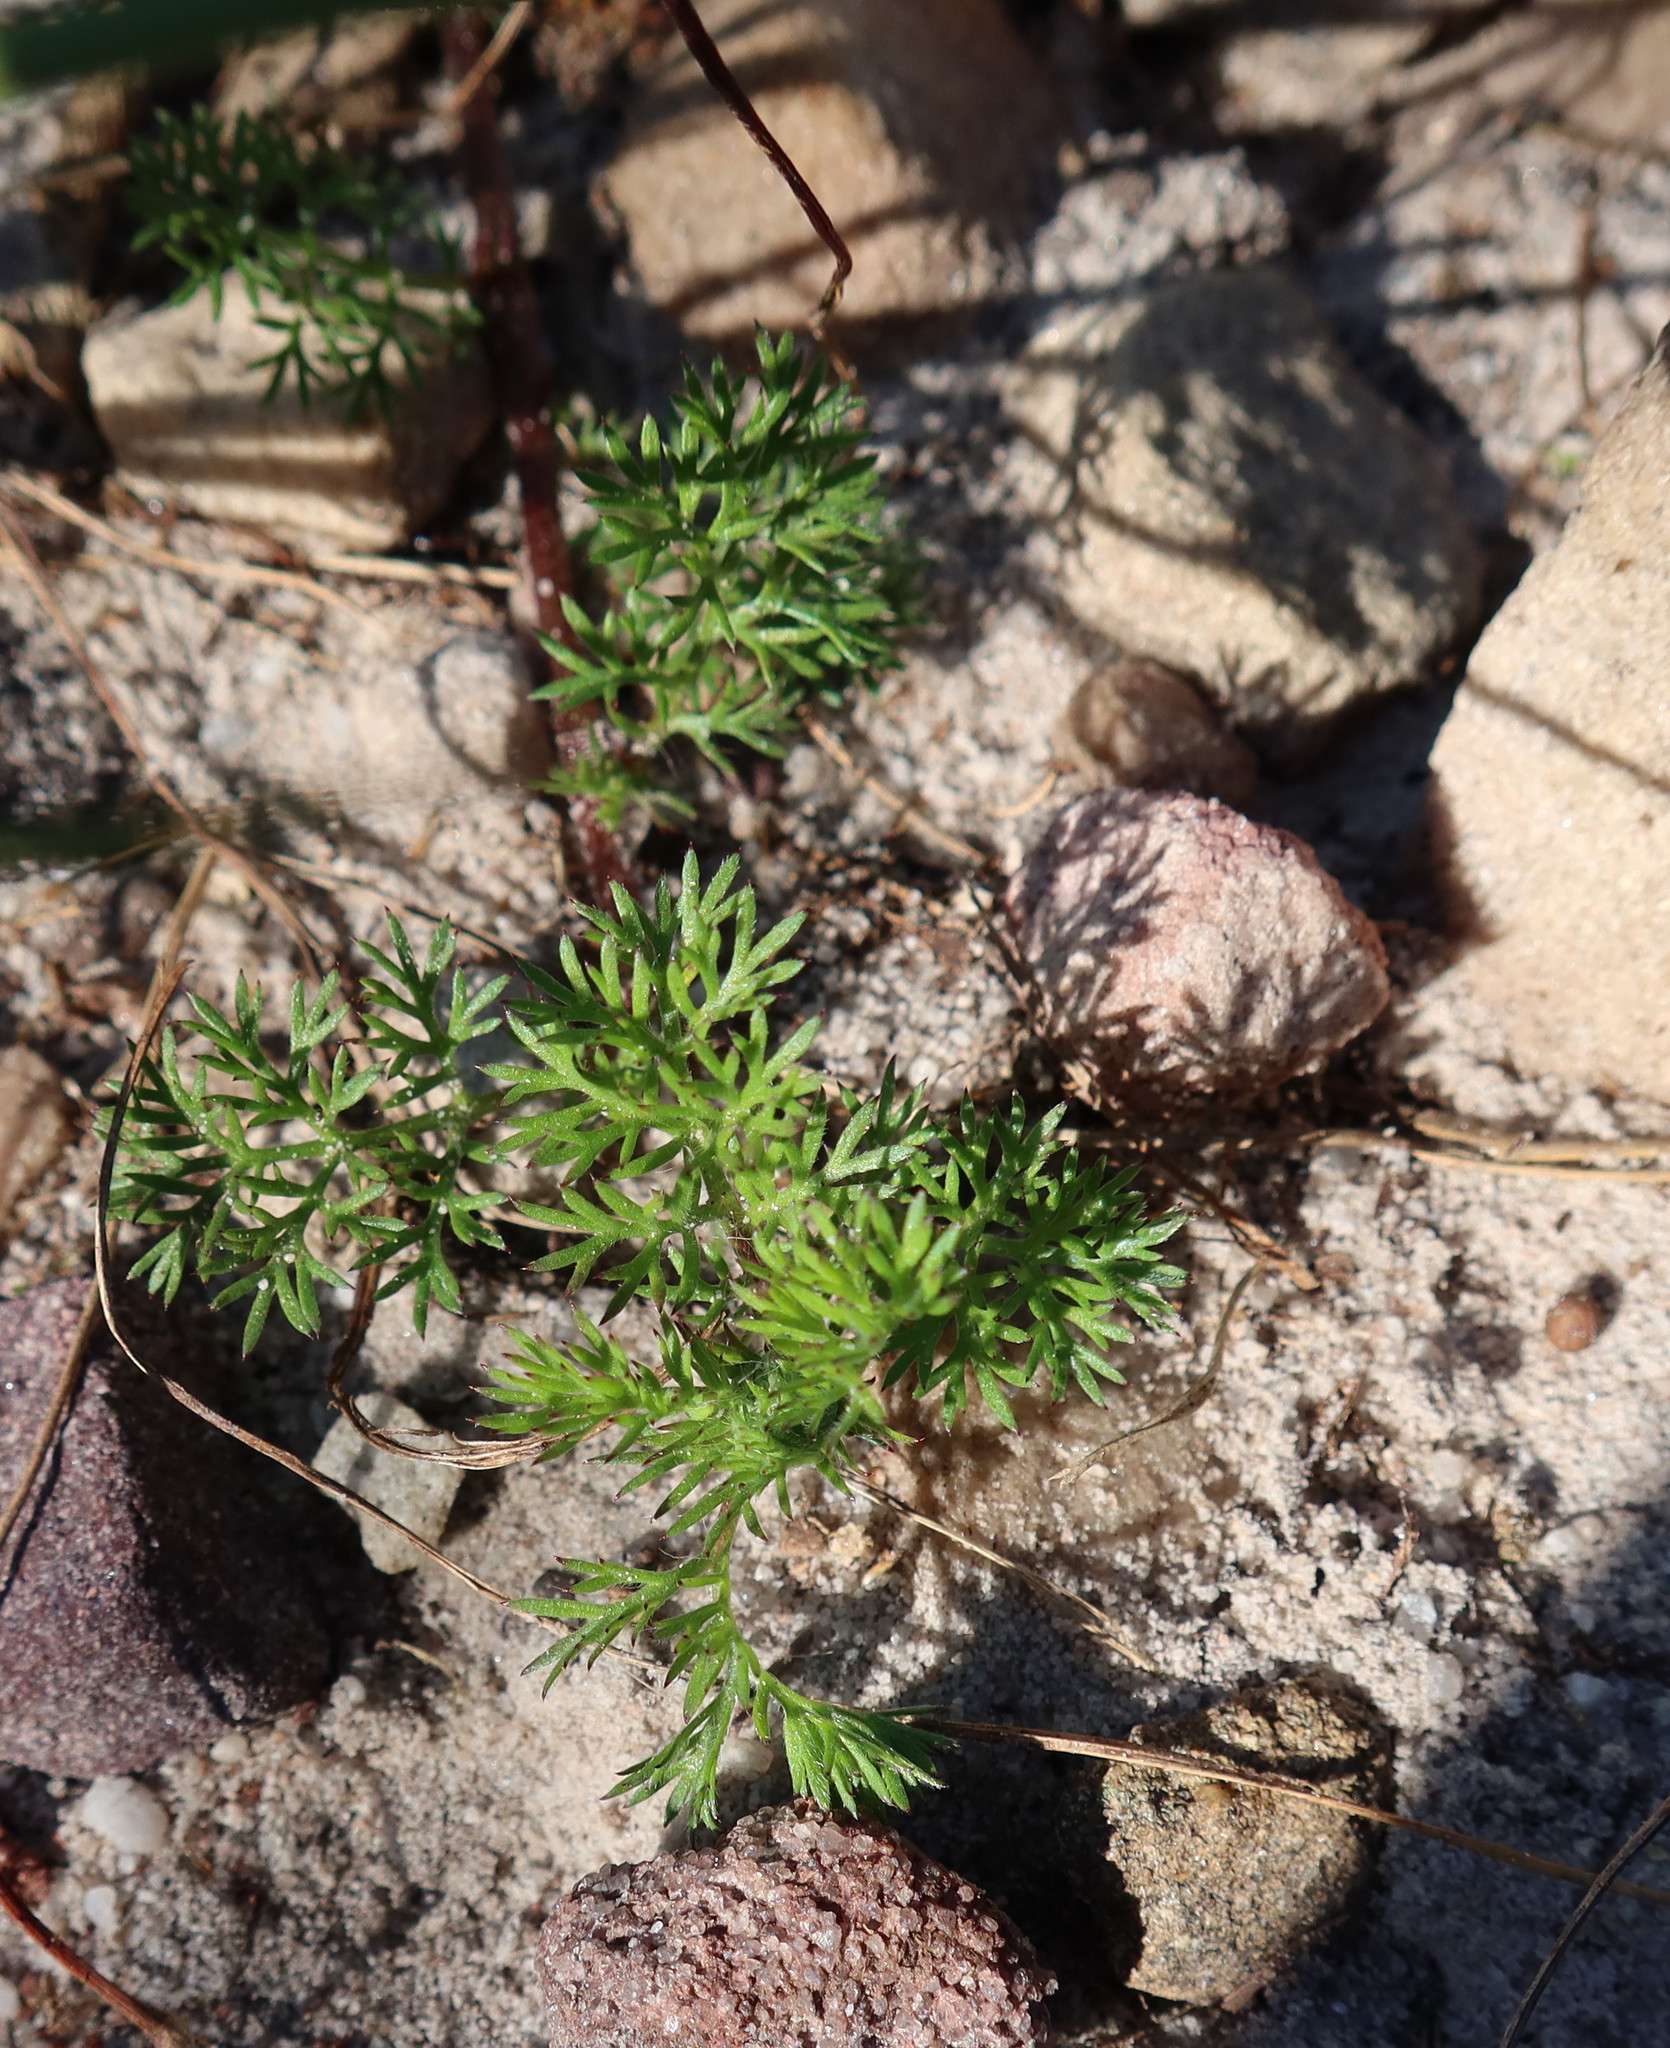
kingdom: Plantae
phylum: Tracheophyta
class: Magnoliopsida
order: Asterales
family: Asteraceae
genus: Cotula
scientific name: Cotula pruinosa
